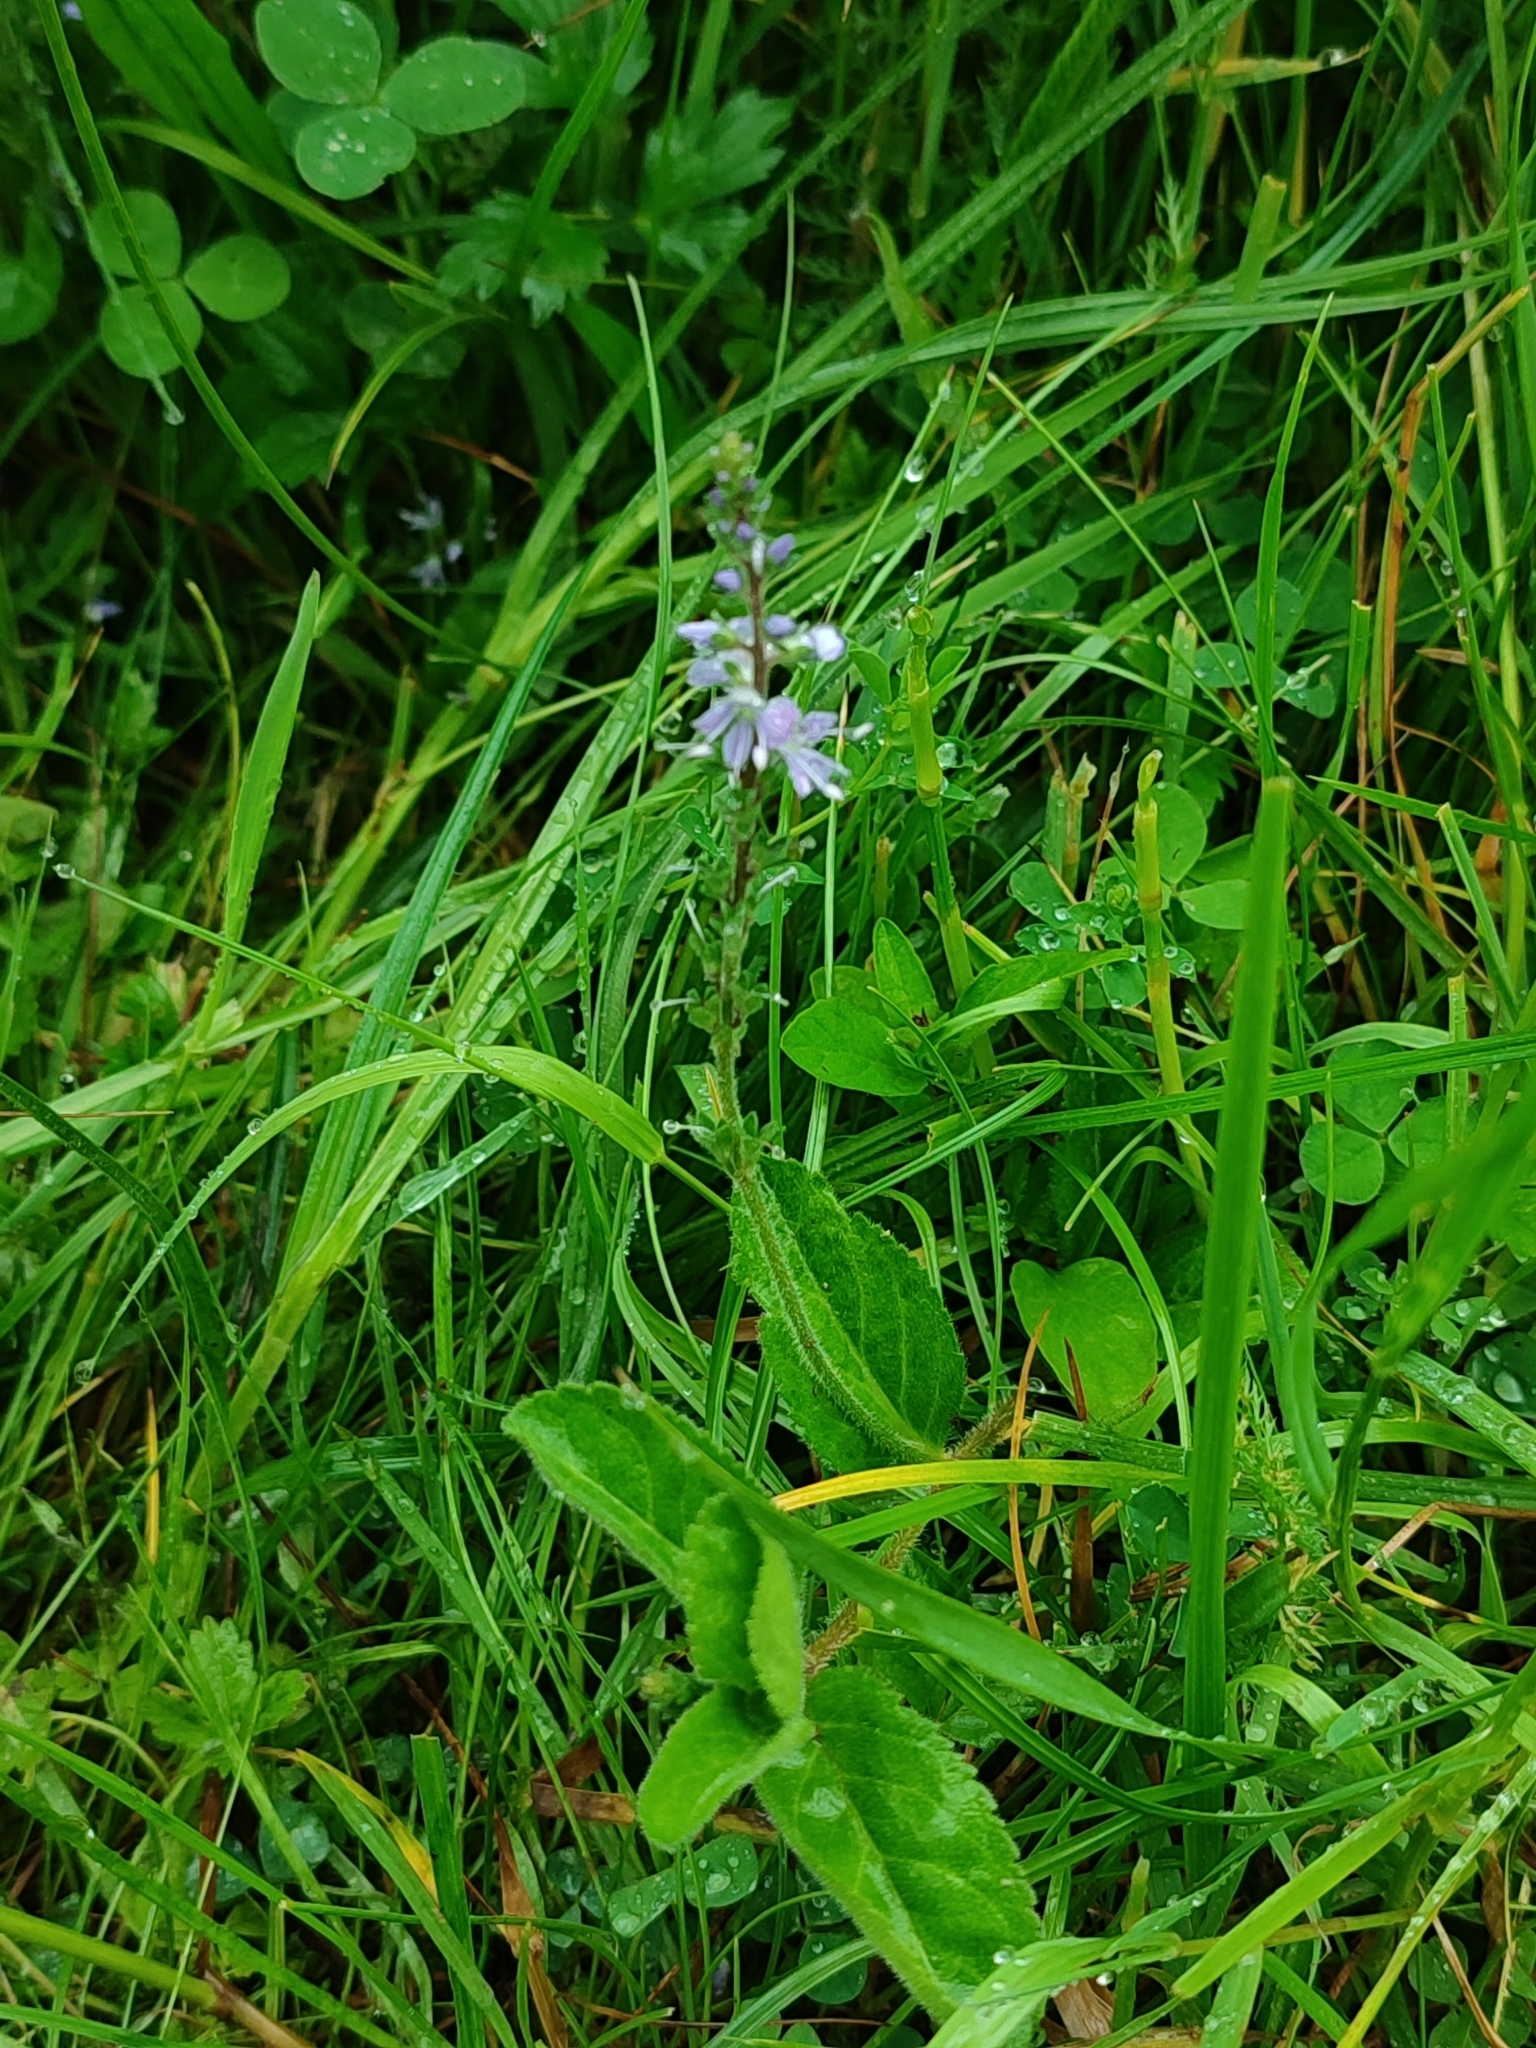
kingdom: Plantae
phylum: Tracheophyta
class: Magnoliopsida
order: Lamiales
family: Plantaginaceae
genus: Veronica
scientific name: Veronica officinalis
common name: Common speedwell
